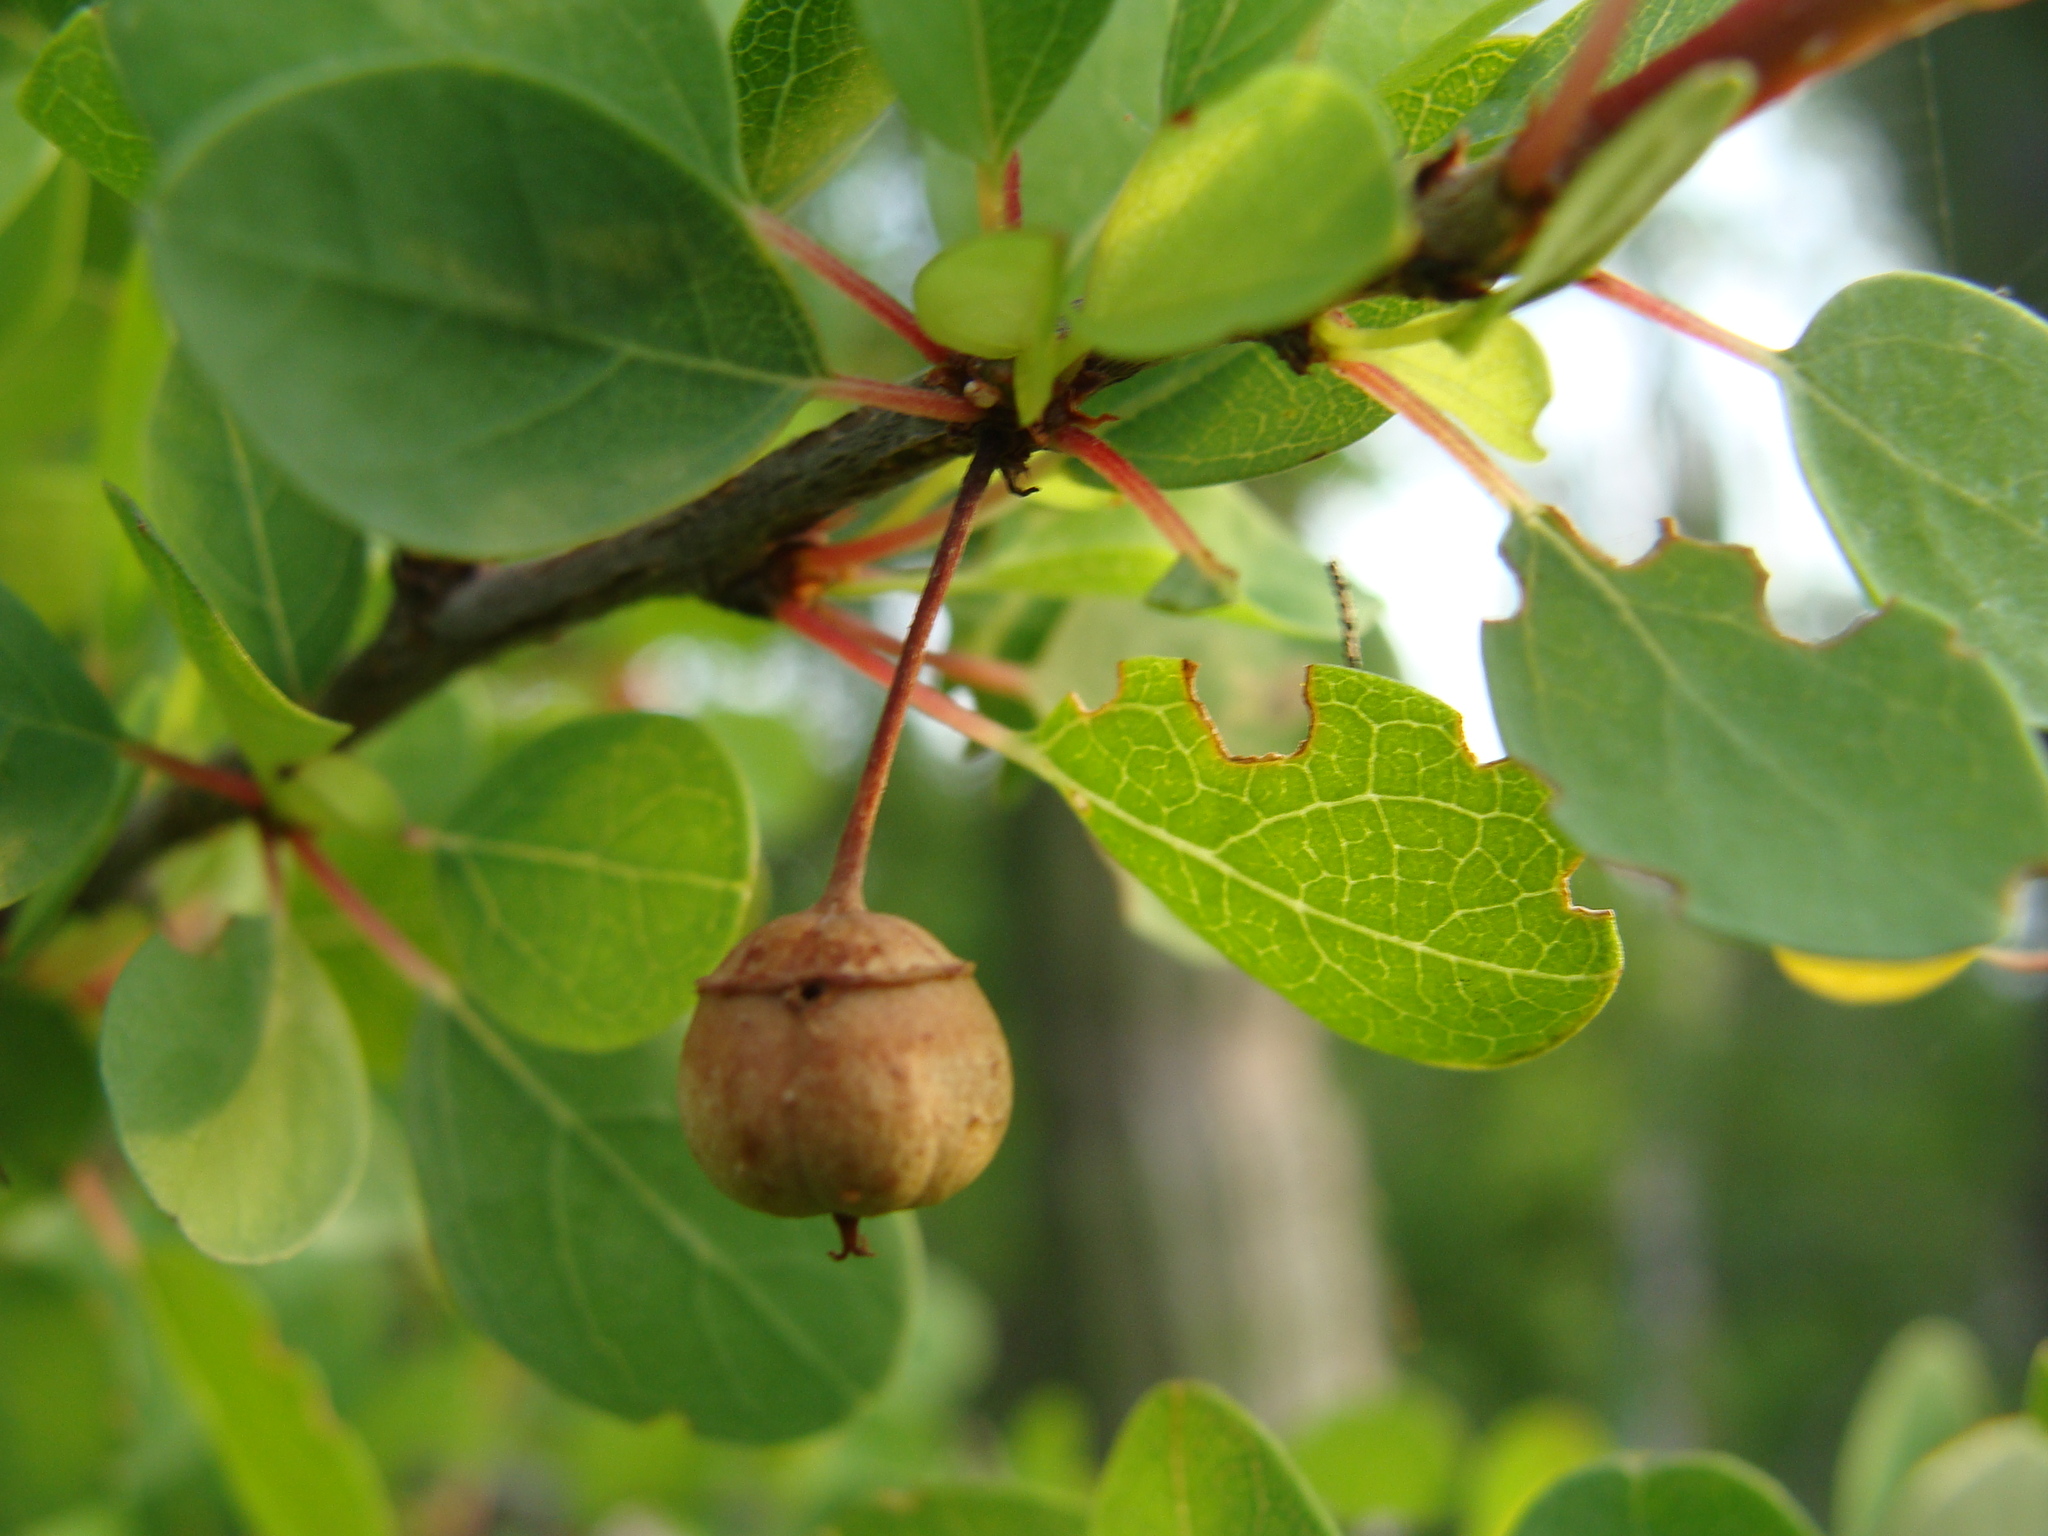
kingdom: Plantae
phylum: Tracheophyta
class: Magnoliopsida
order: Rosales
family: Rhamnaceae
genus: Colubrina
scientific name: Colubrina viridis
